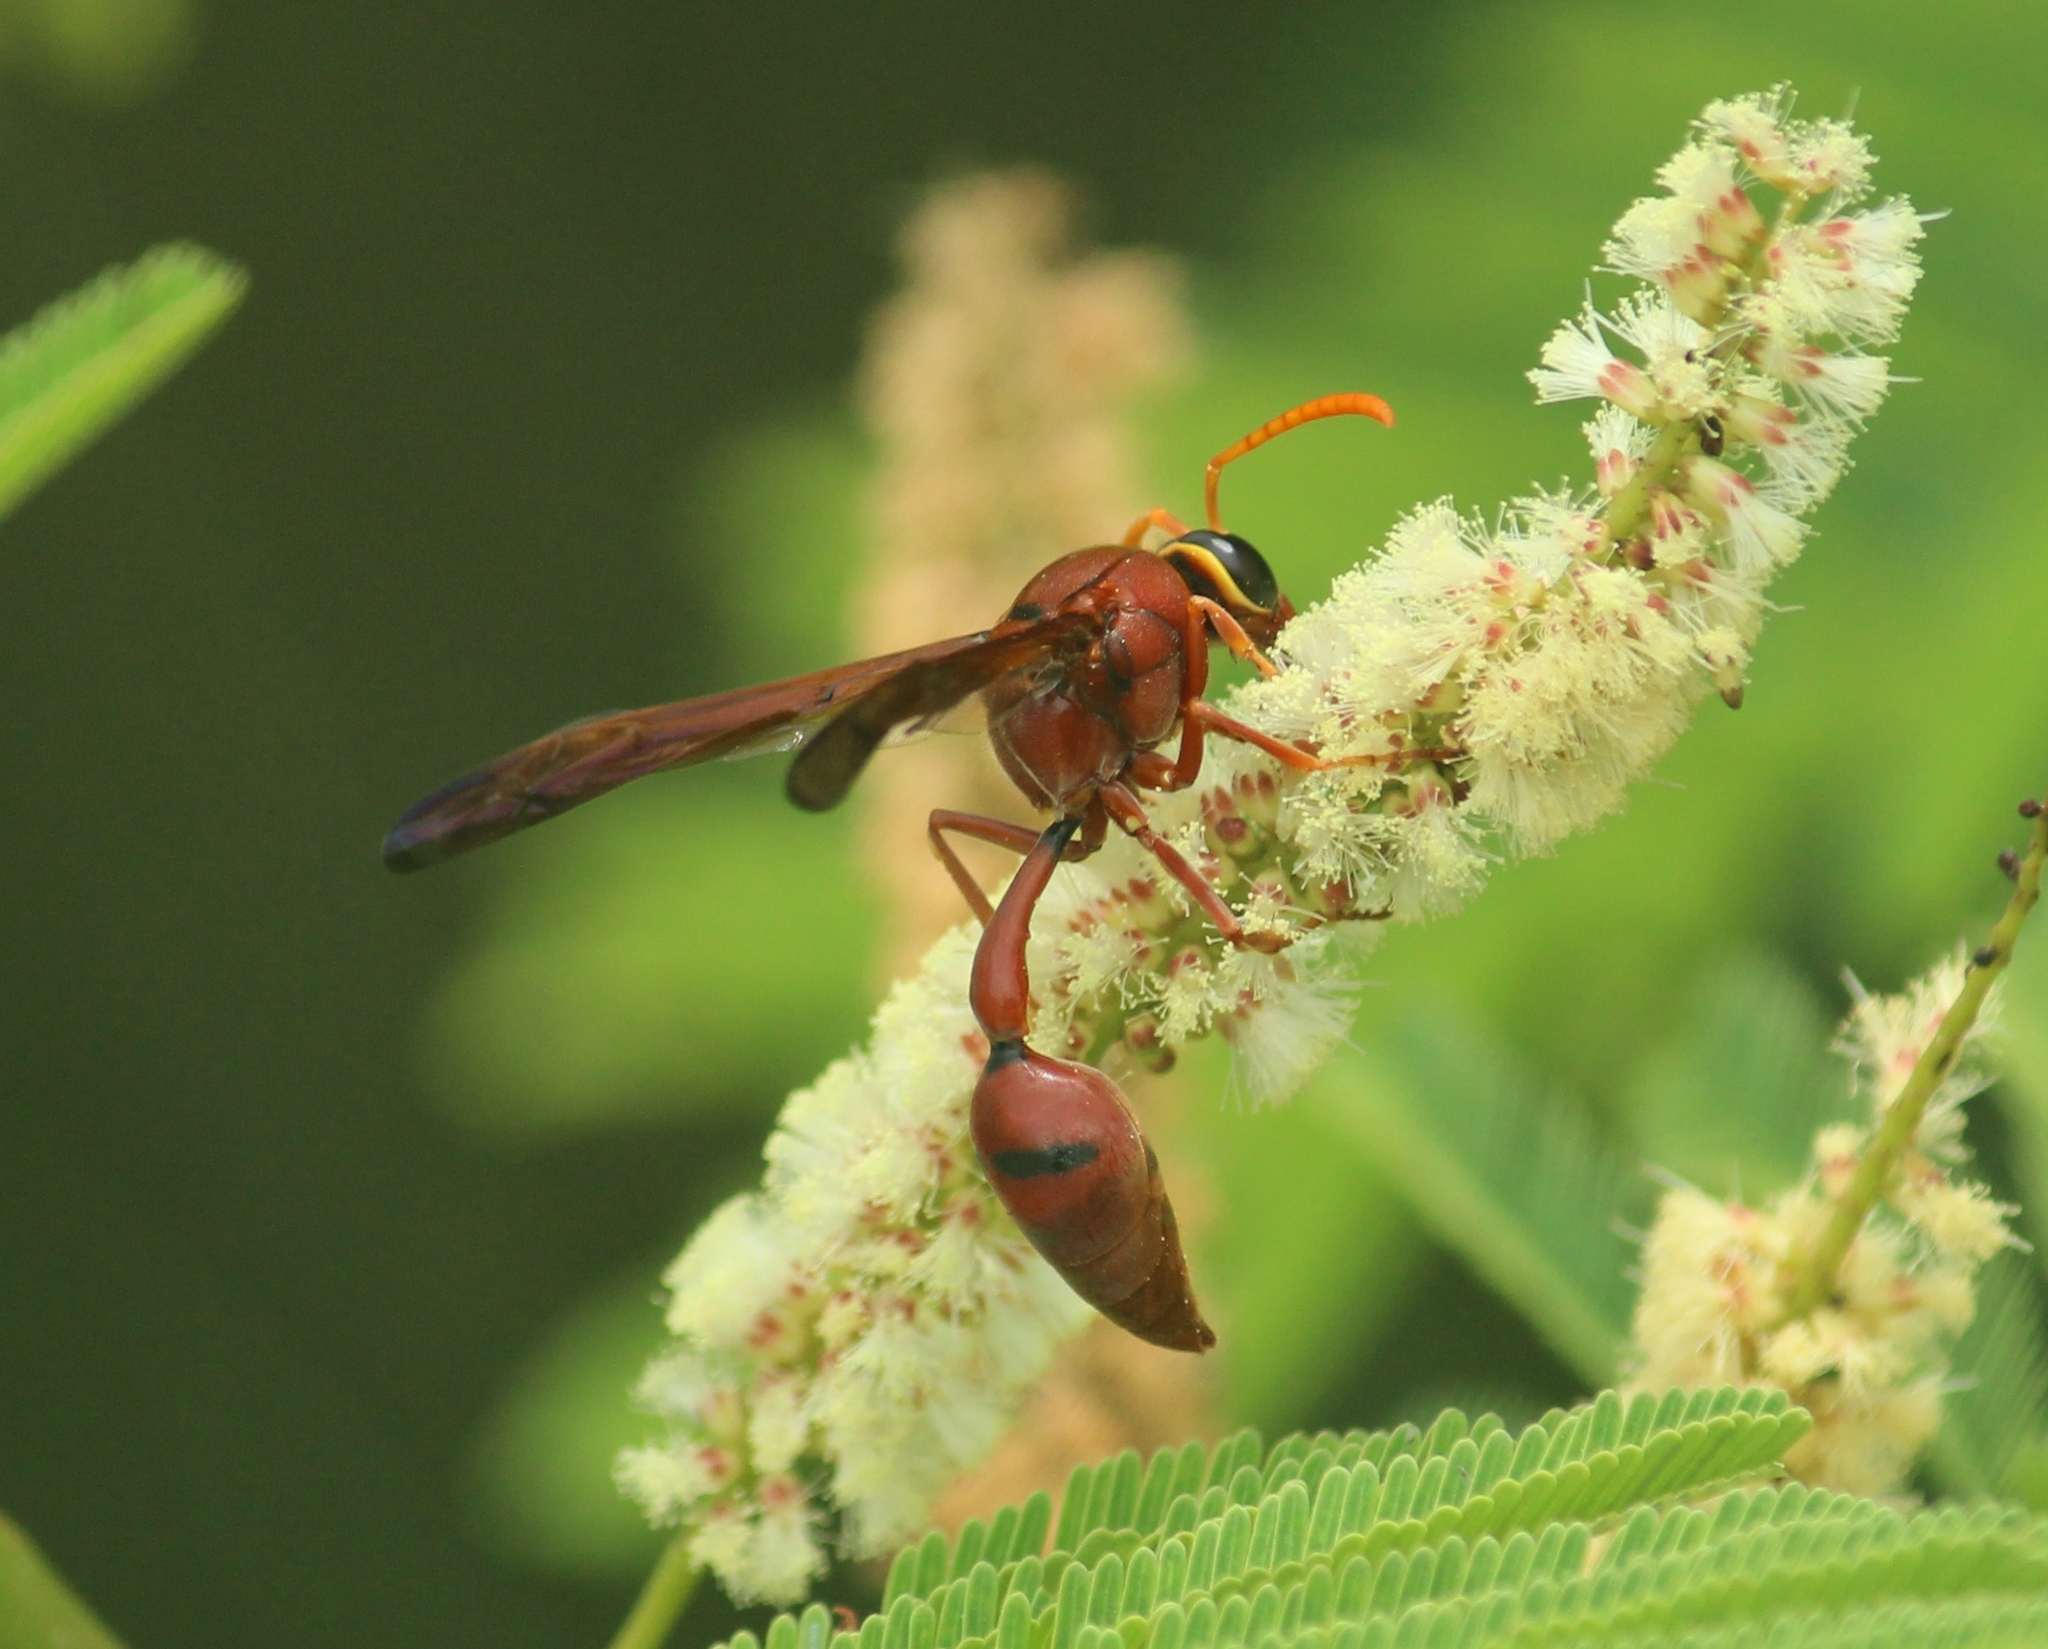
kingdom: Animalia
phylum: Arthropoda
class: Insecta
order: Hymenoptera
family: Eumenidae
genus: Delta
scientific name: Delta conoideum
